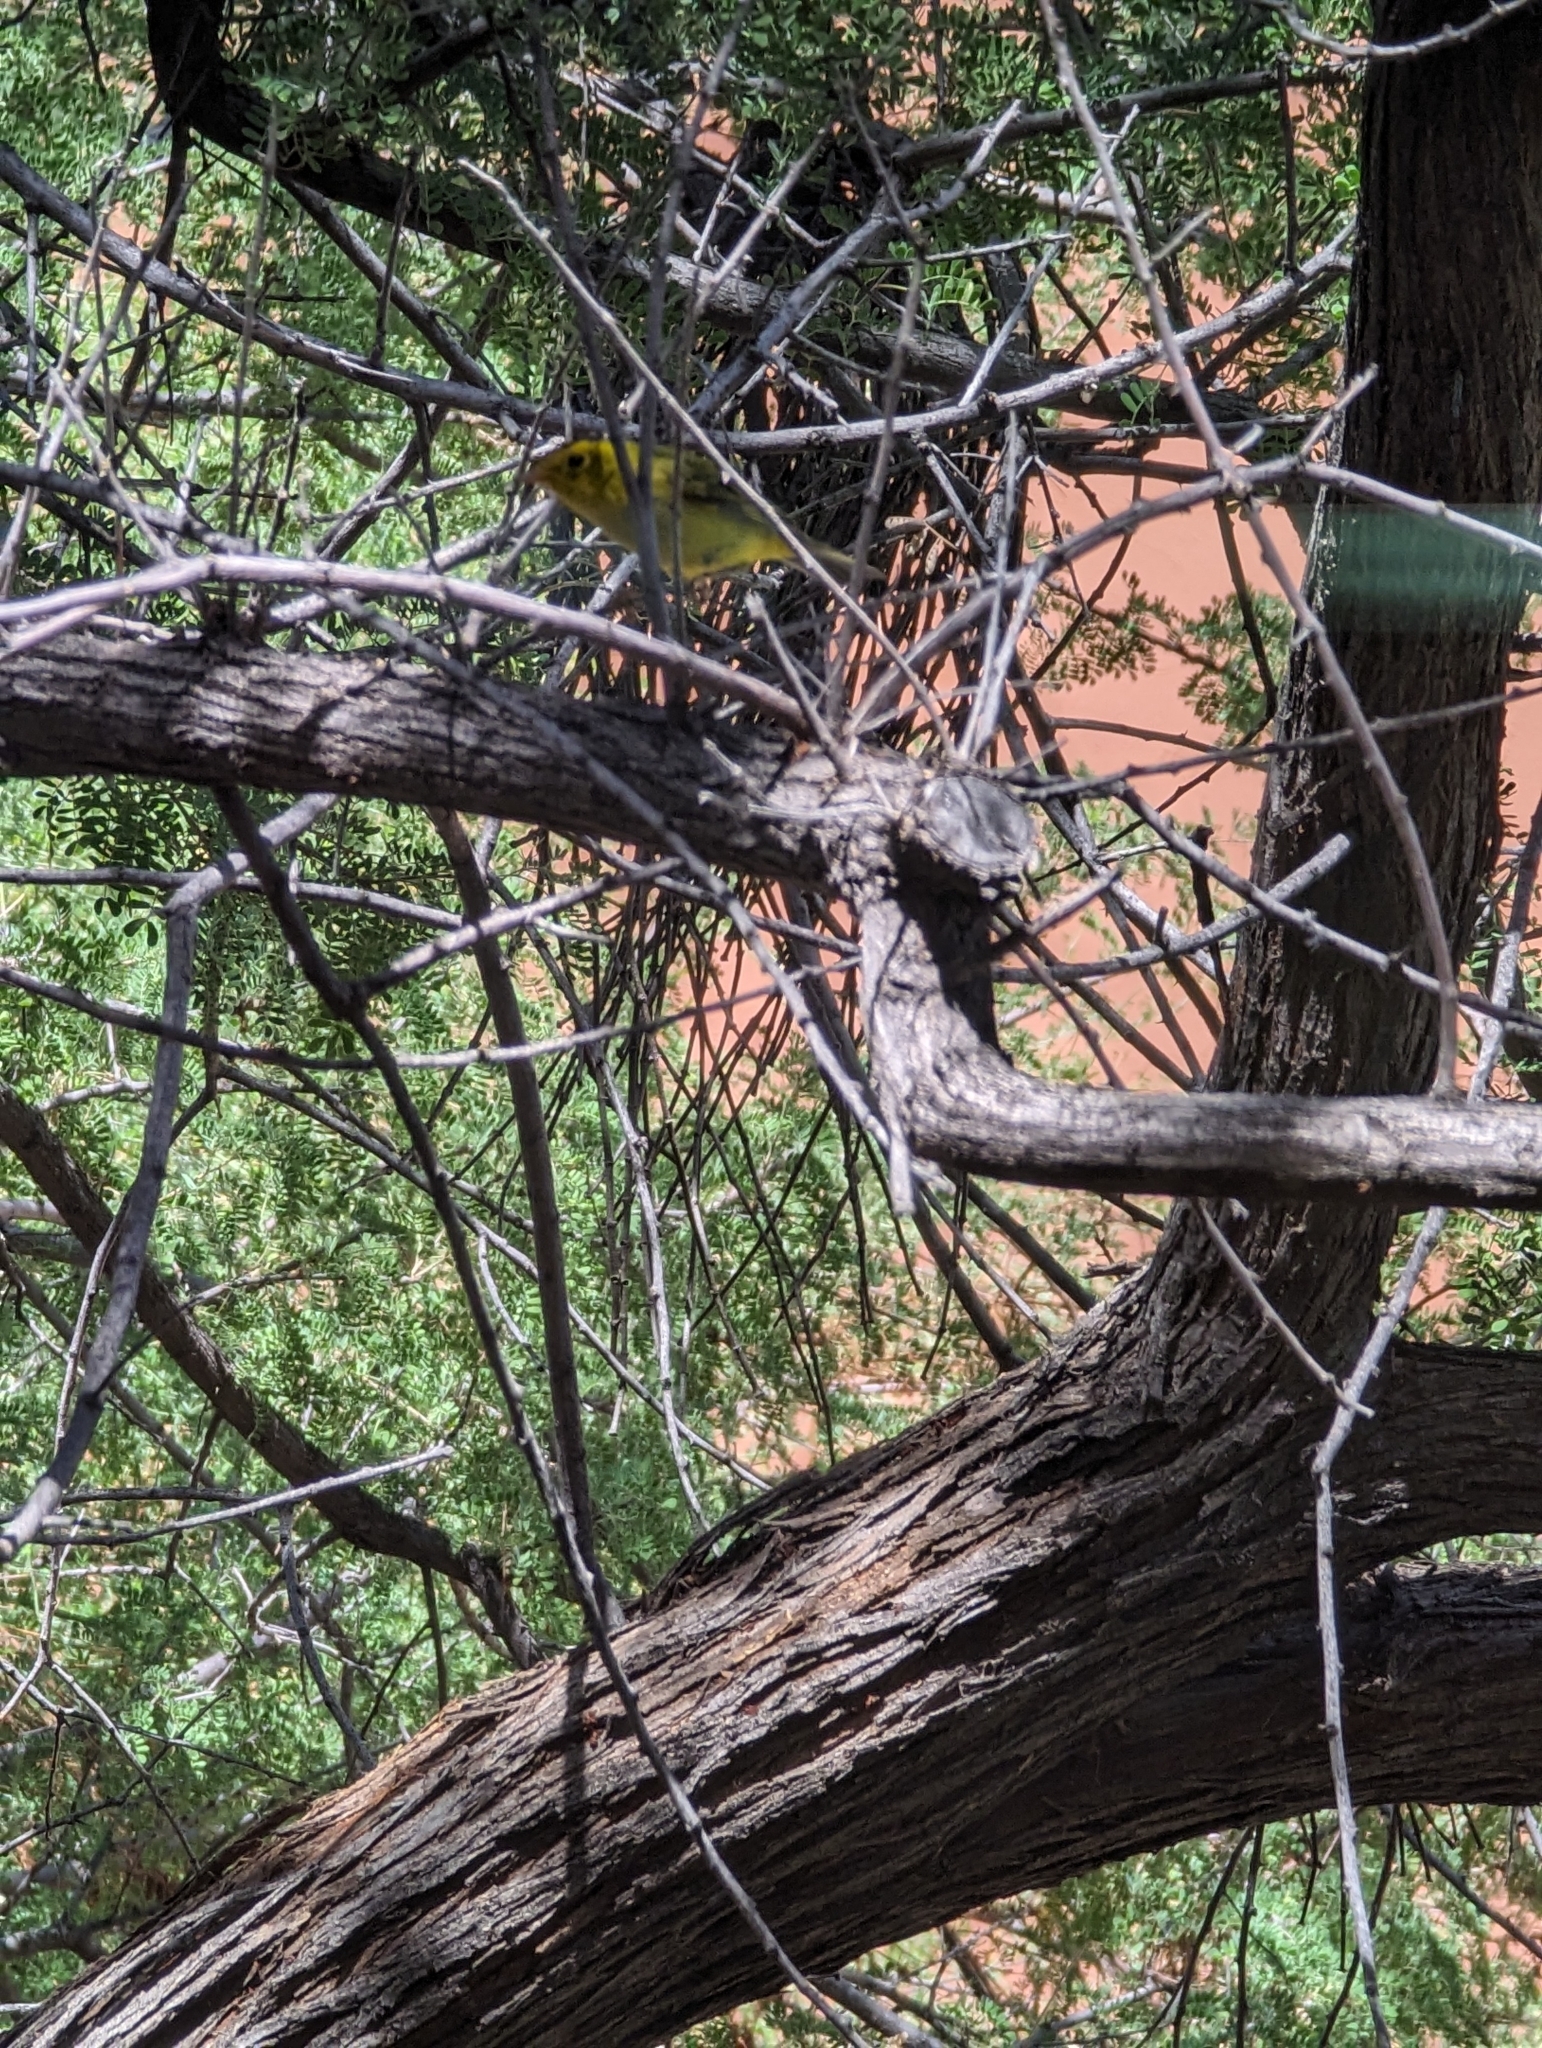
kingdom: Animalia
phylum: Chordata
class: Aves
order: Passeriformes
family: Parulidae
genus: Cardellina
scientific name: Cardellina pusilla
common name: Wilson's warbler
